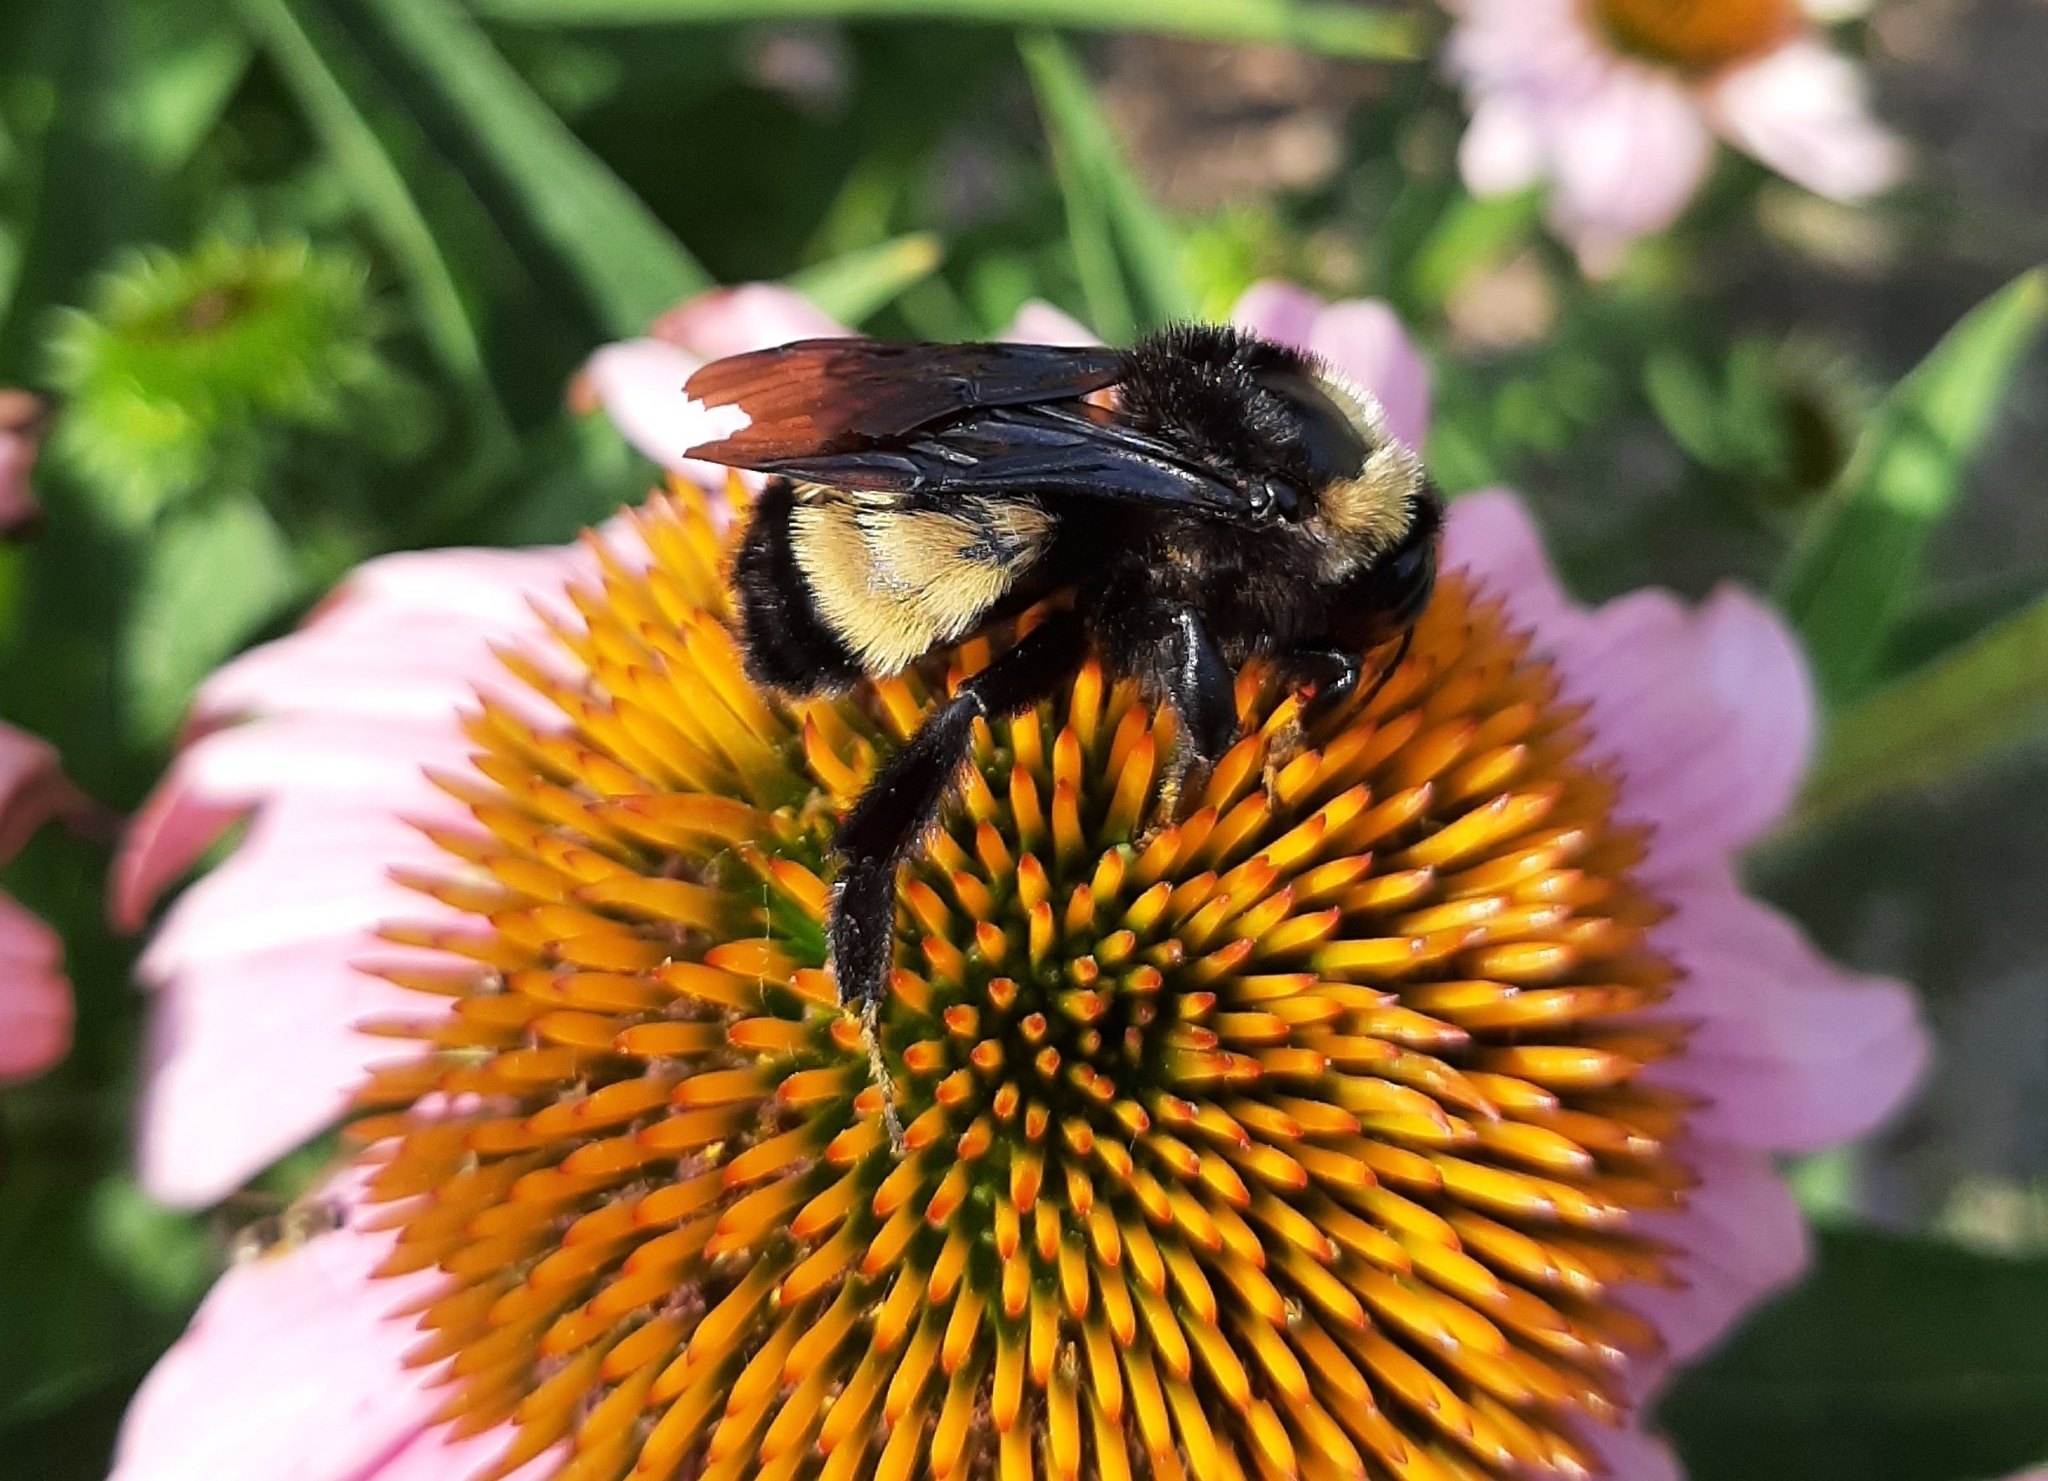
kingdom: Animalia
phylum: Arthropoda
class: Insecta
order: Hymenoptera
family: Apidae
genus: Bombus
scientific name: Bombus pensylvanicus
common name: Bumble bee
